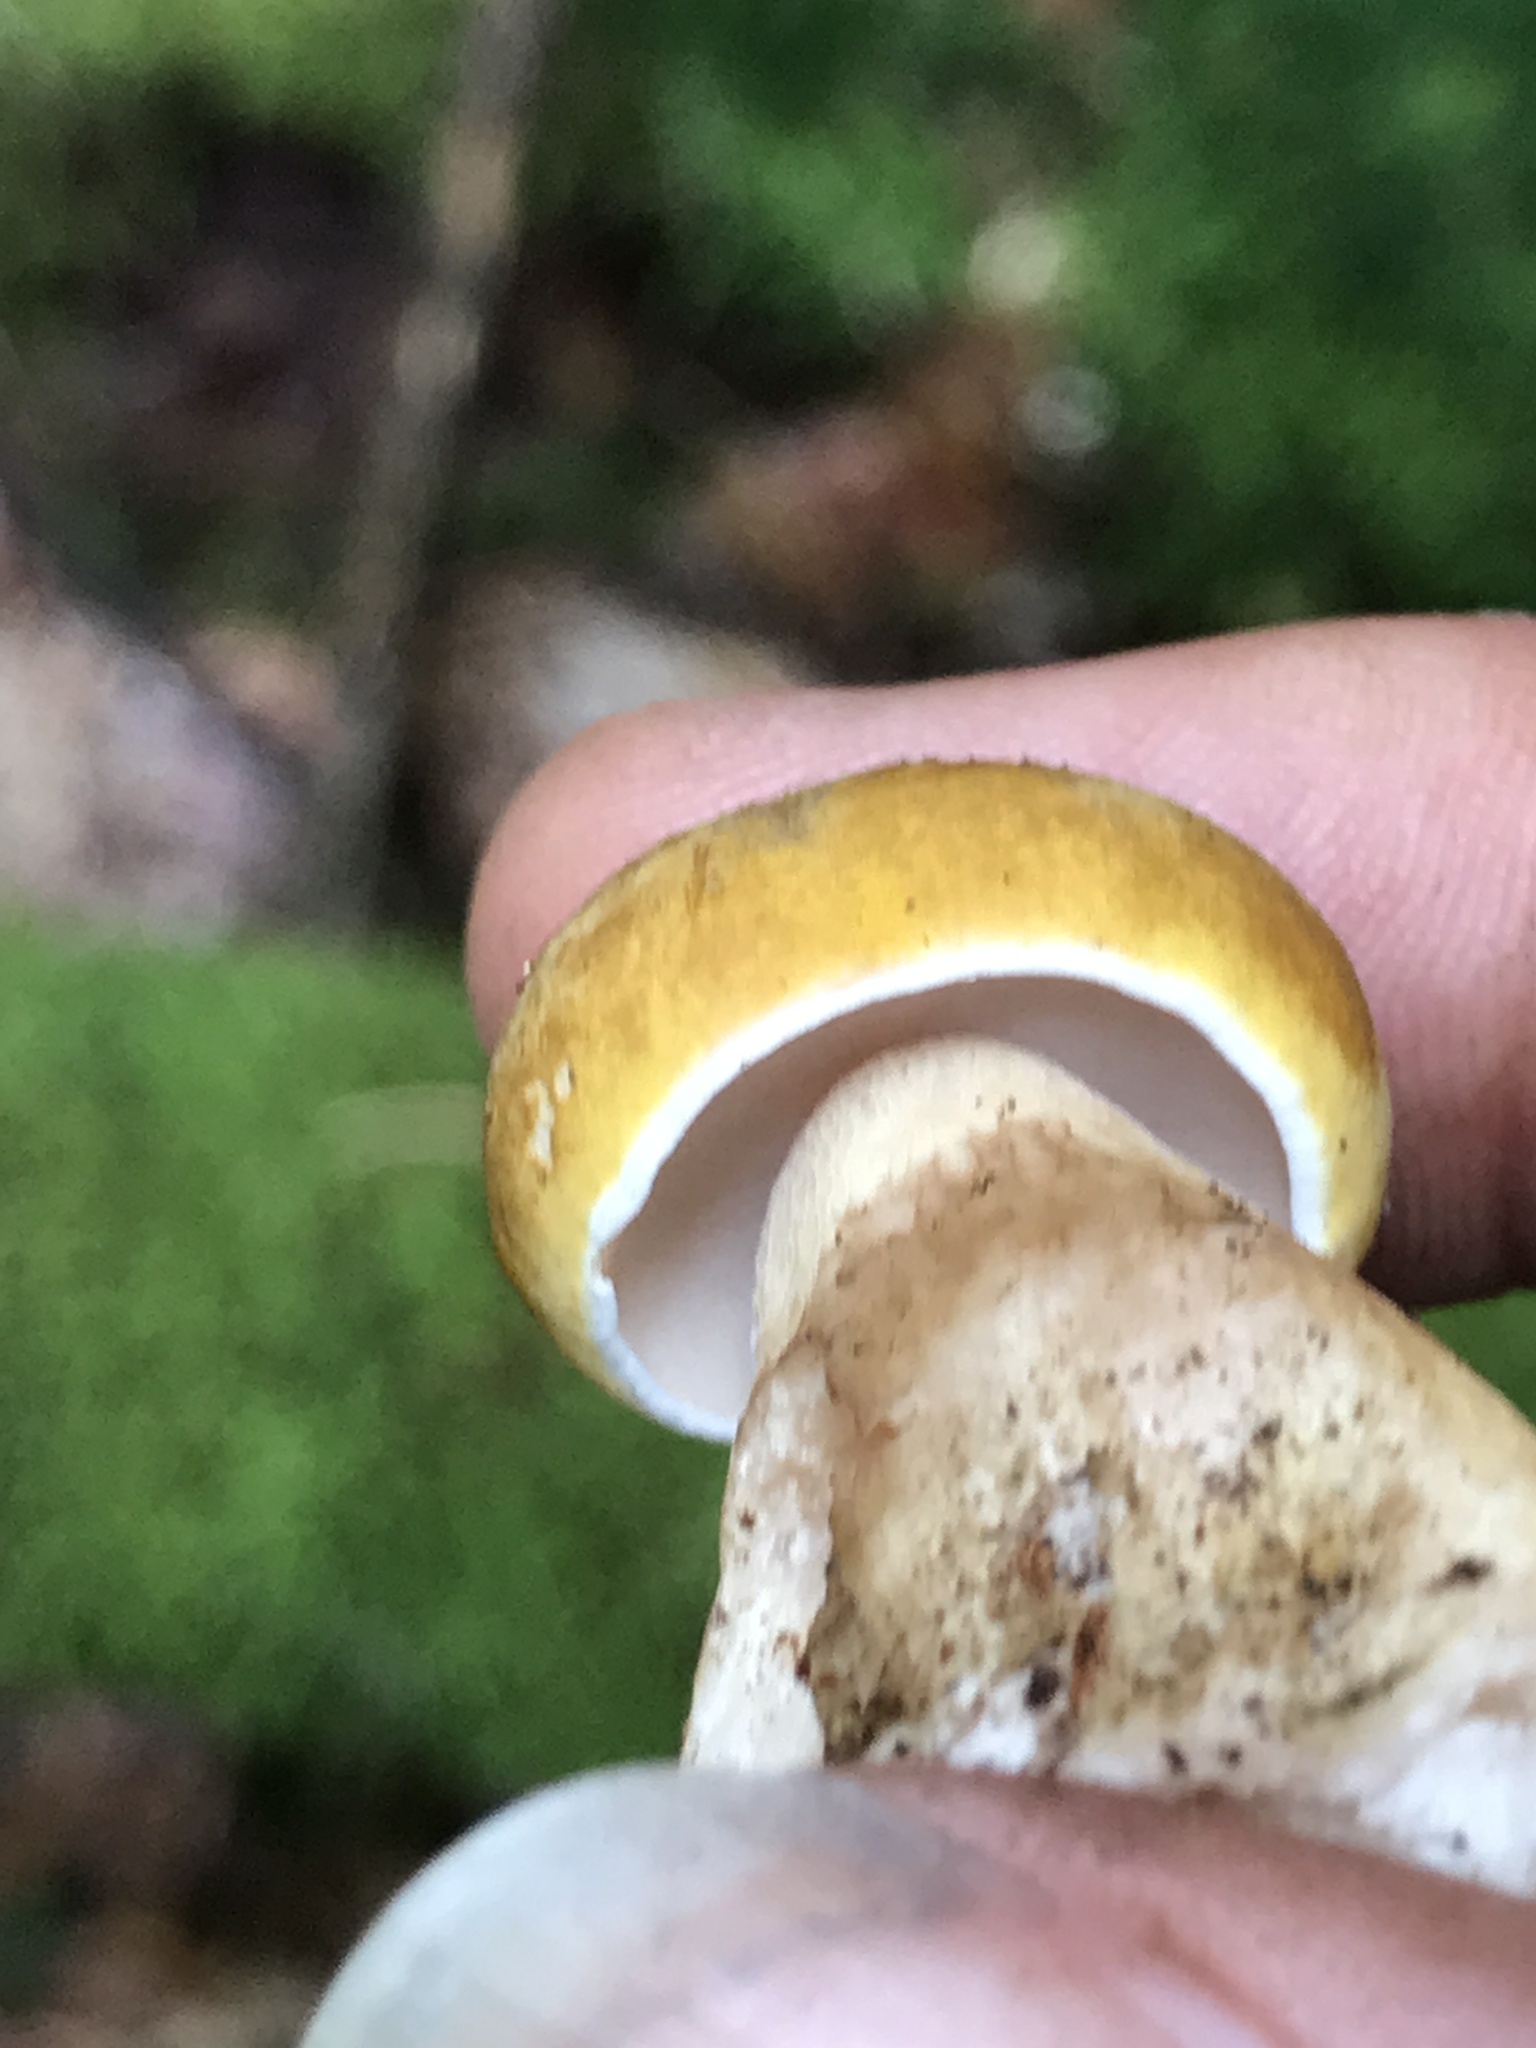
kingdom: Fungi
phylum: Basidiomycota
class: Agaricomycetes
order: Boletales
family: Boletaceae
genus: Tylopilus
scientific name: Tylopilus felleus
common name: Bitter bolete
